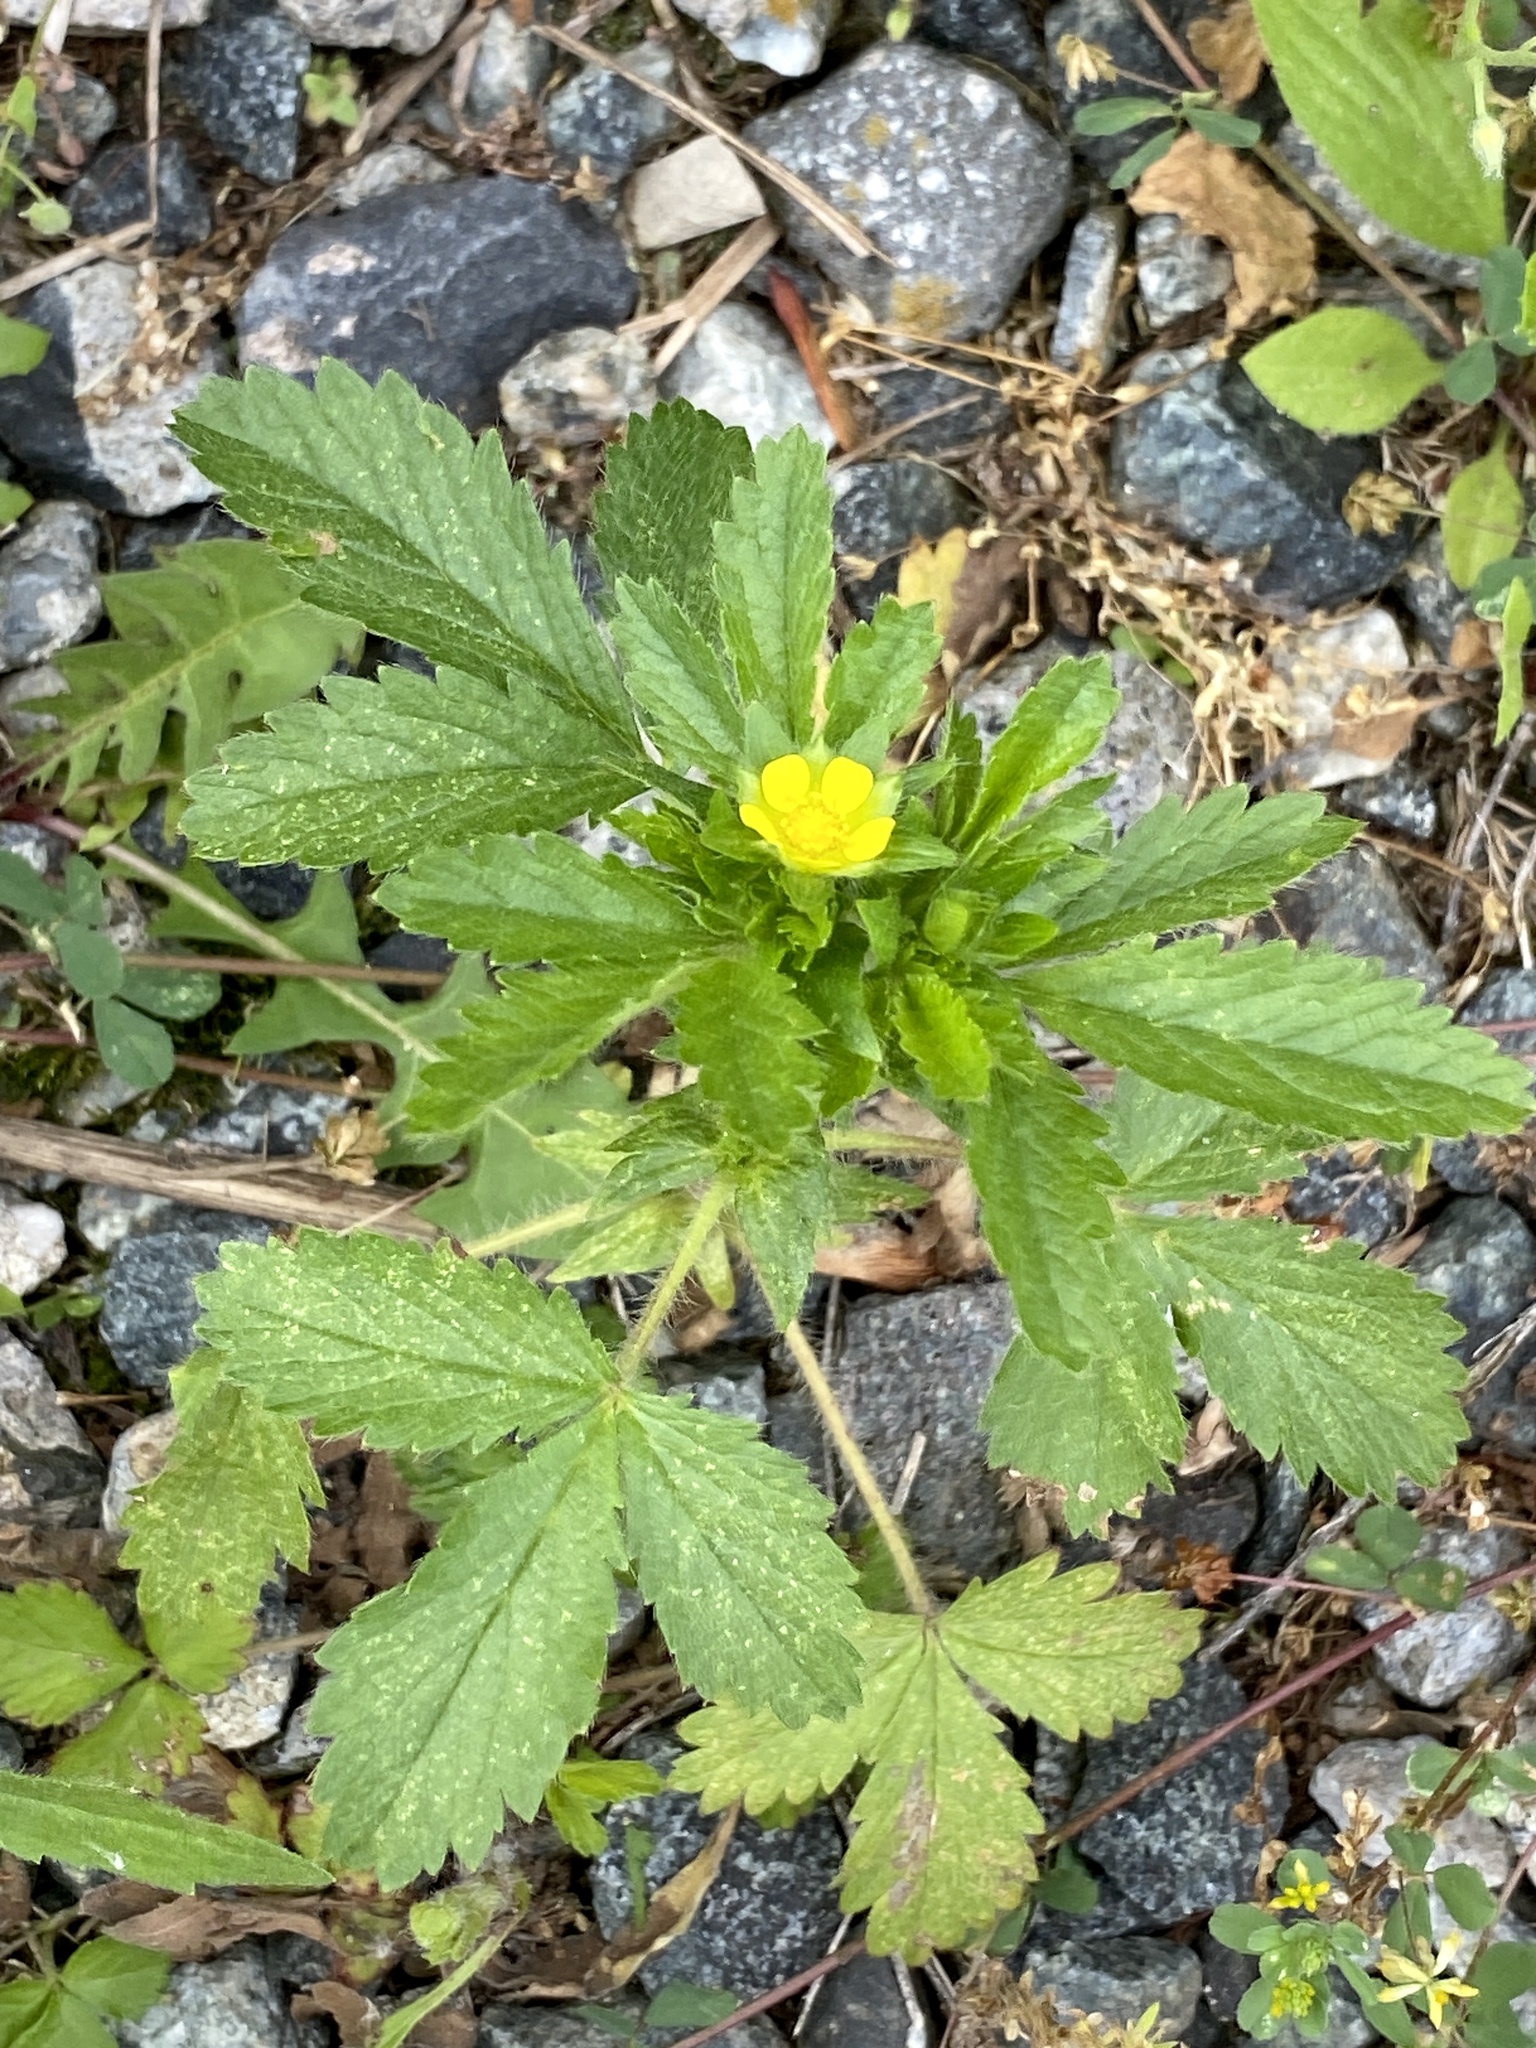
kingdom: Plantae
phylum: Tracheophyta
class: Magnoliopsida
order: Rosales
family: Rosaceae
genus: Potentilla
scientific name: Potentilla norvegica
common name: Ternate-leaved cinquefoil
